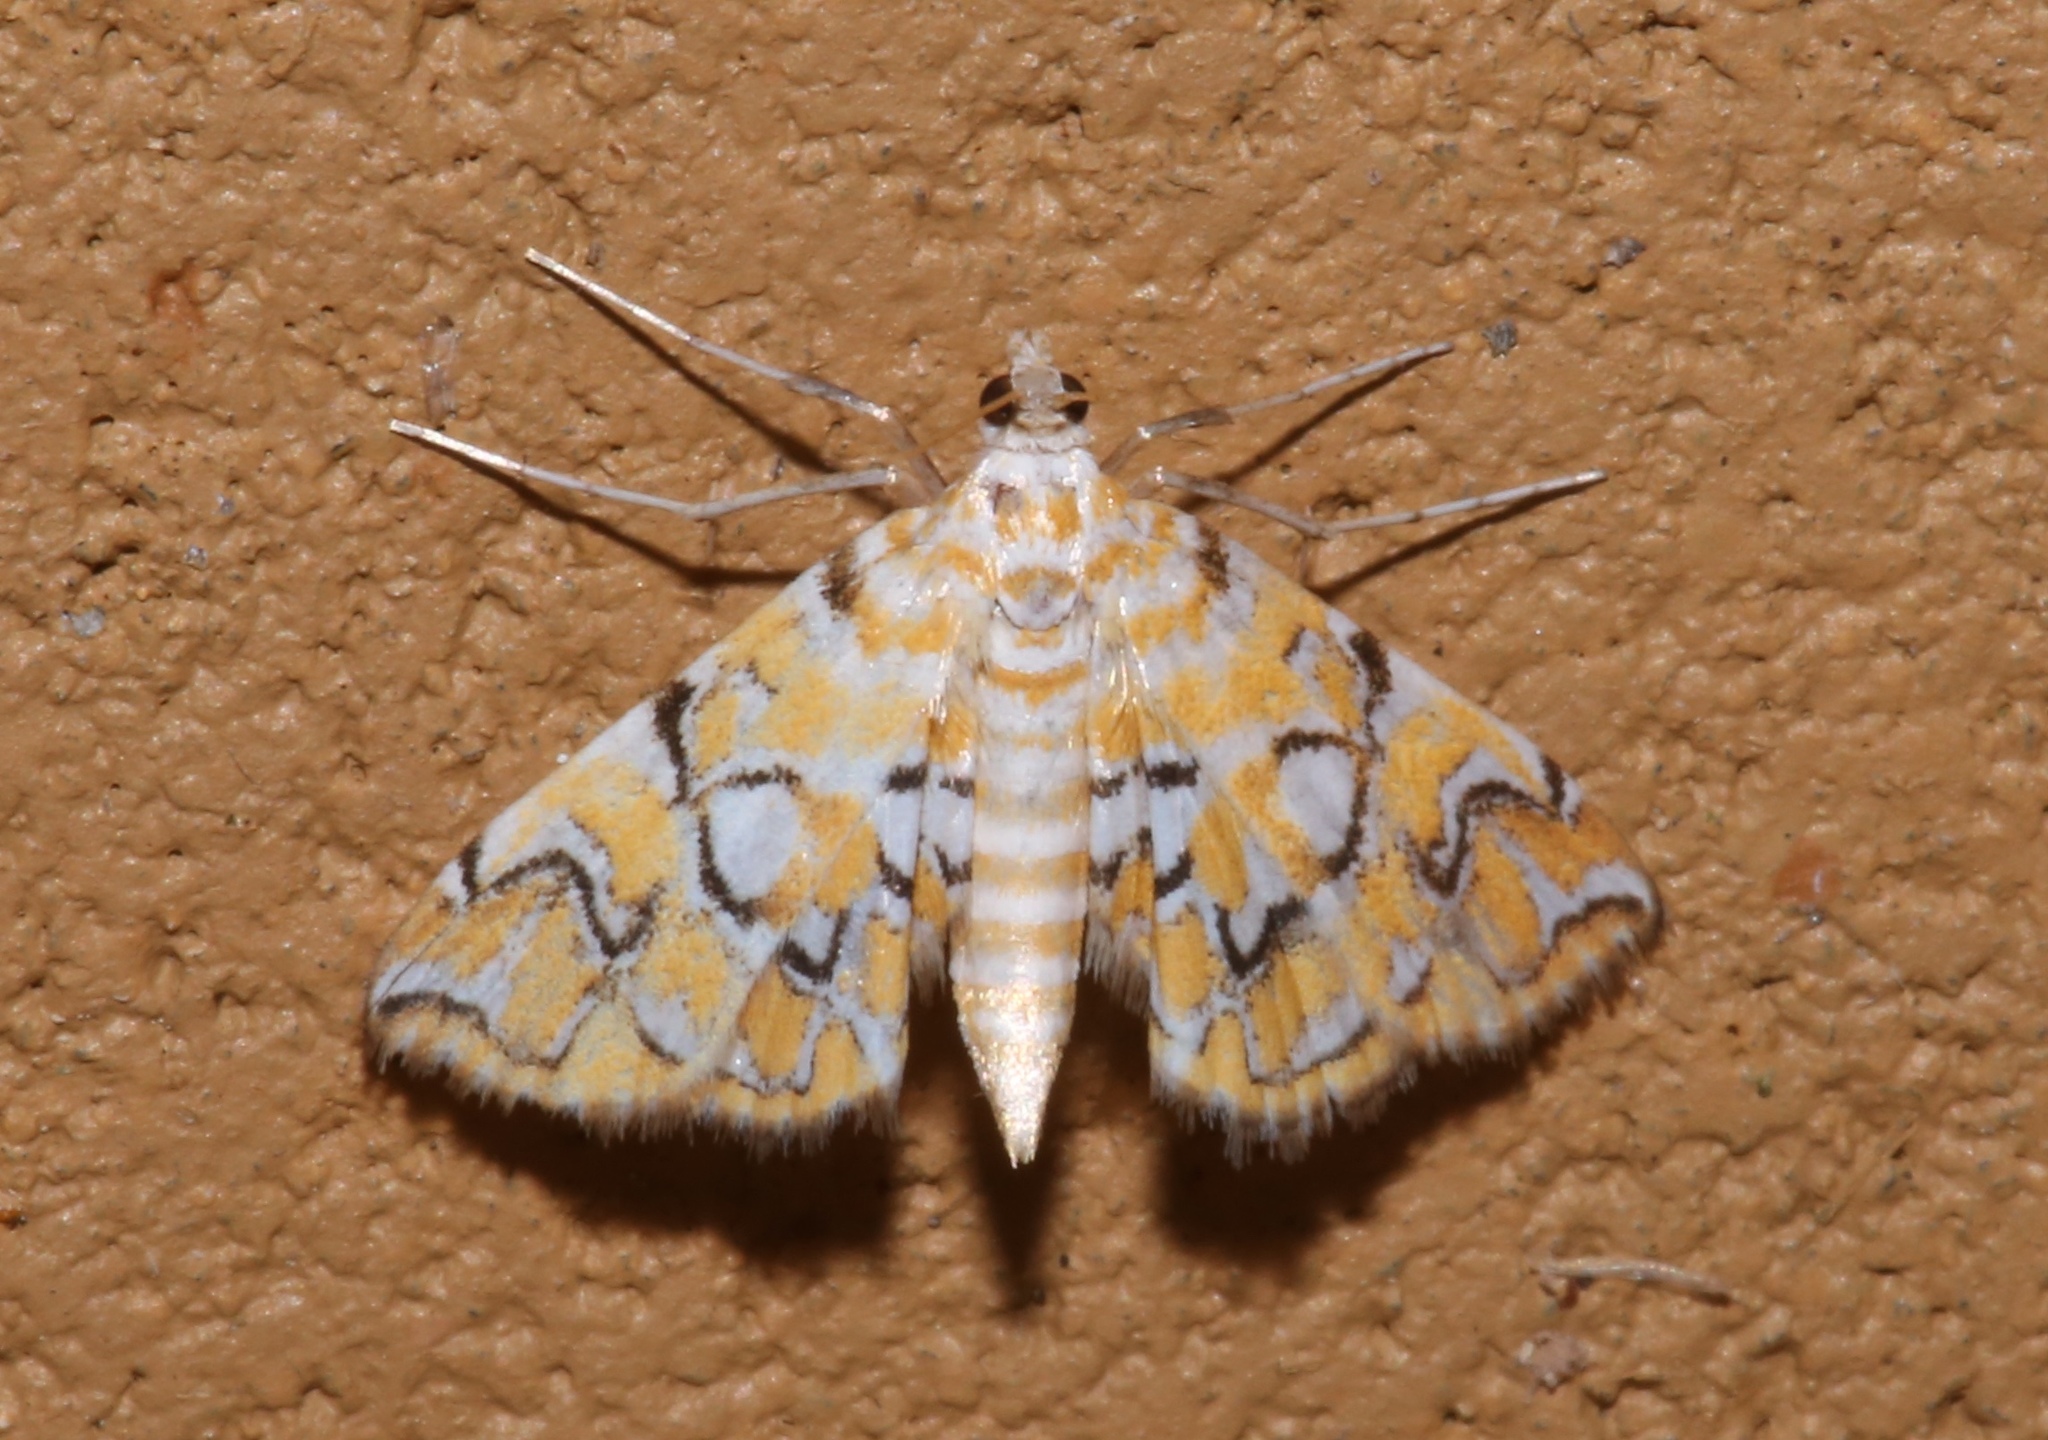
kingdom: Animalia
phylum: Arthropoda
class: Insecta
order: Lepidoptera
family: Crambidae
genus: Elophila
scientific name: Elophila icciusalis
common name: Pondside pyralid moth
